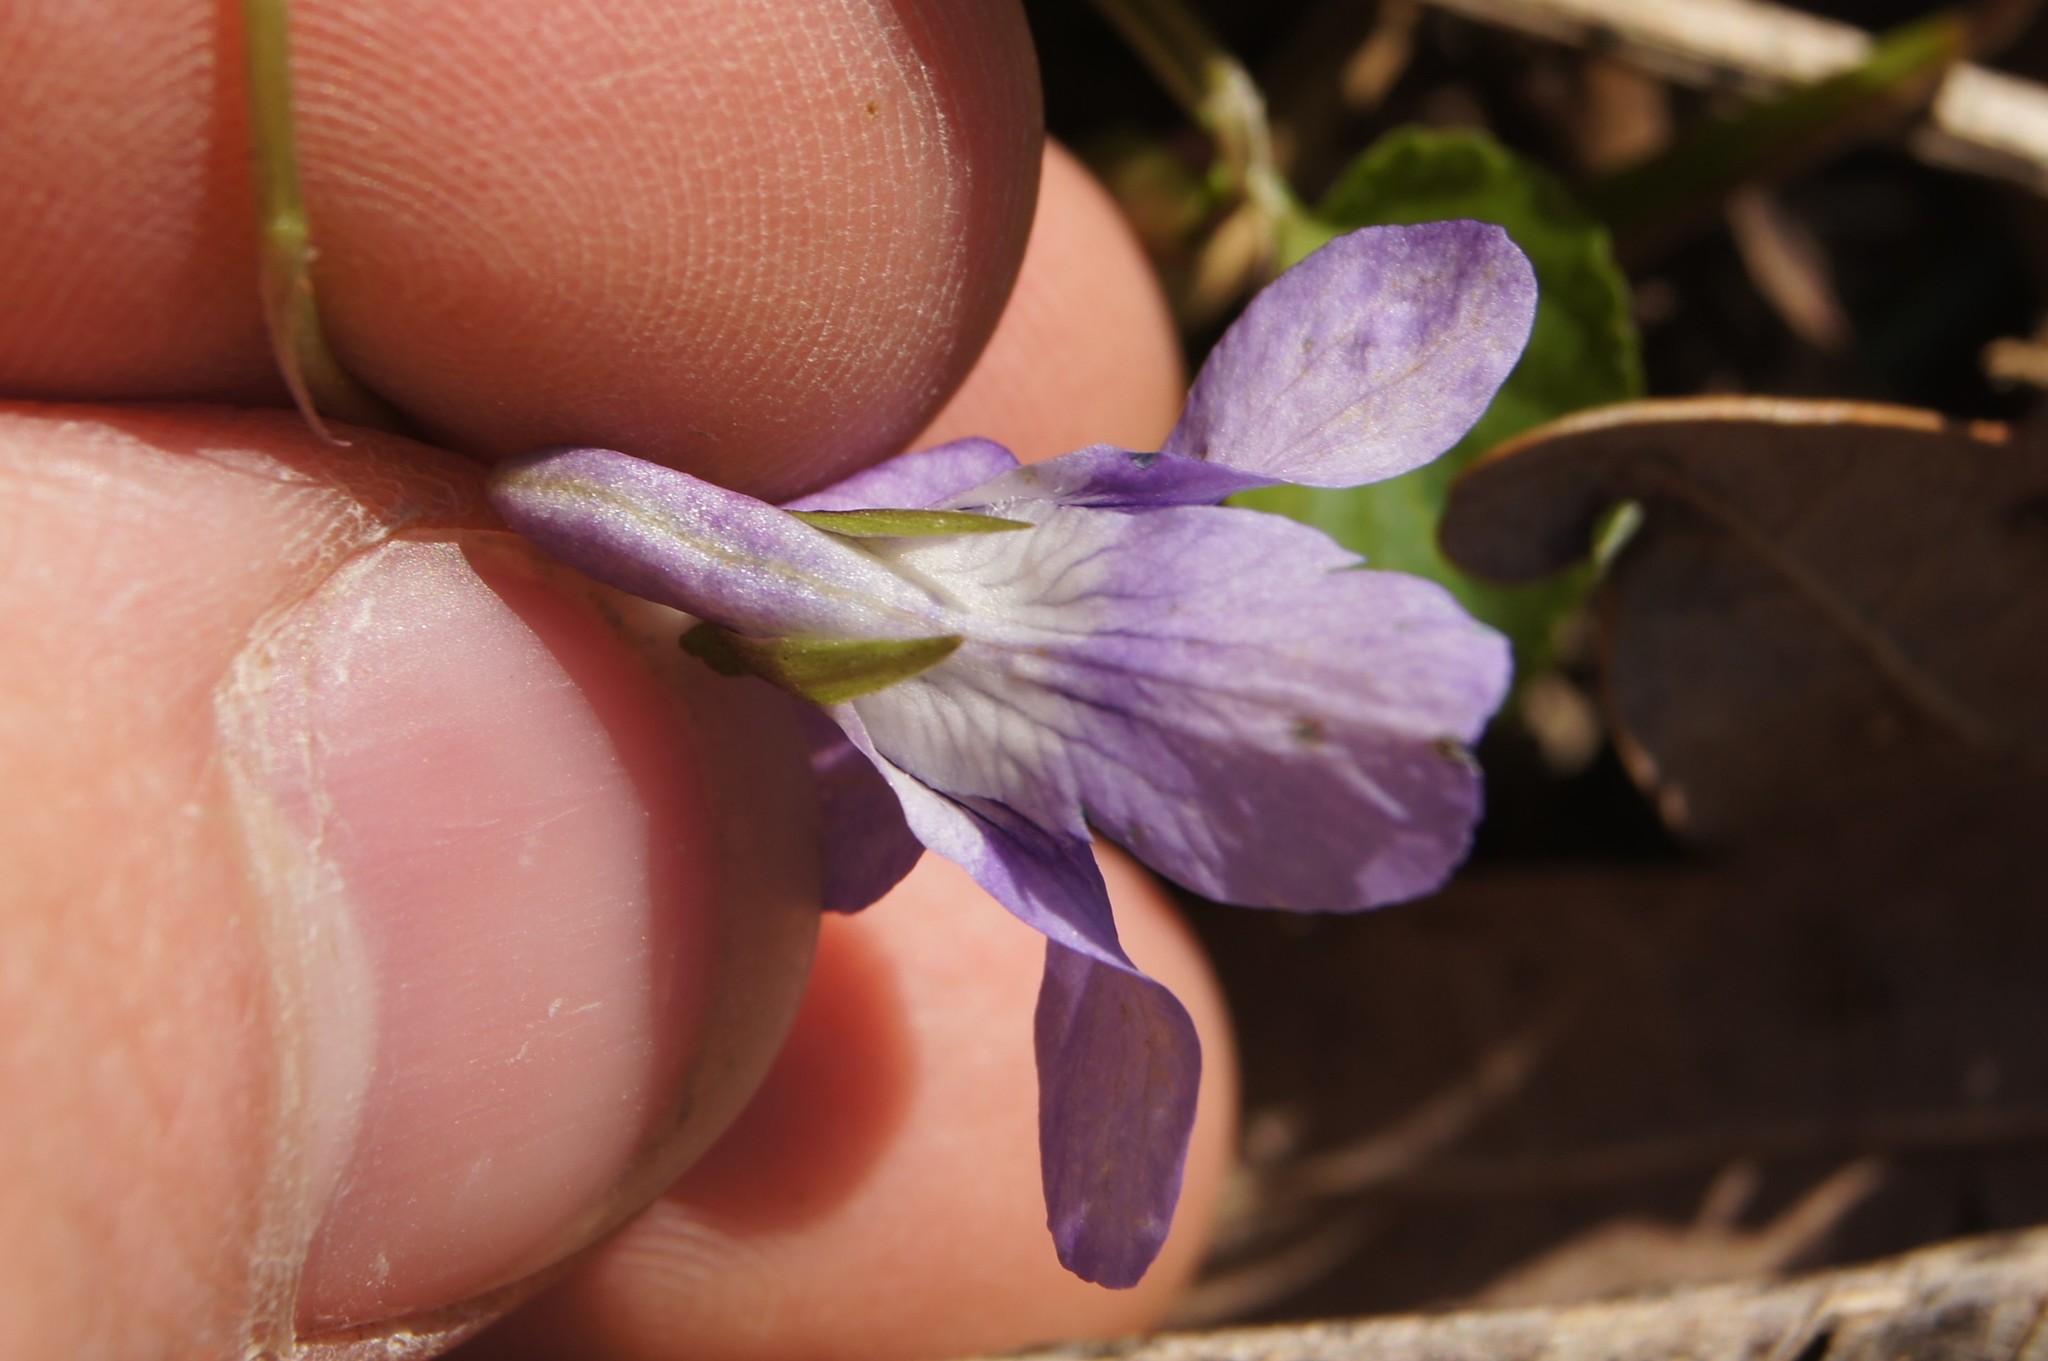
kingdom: Plantae
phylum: Tracheophyta
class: Magnoliopsida
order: Malpighiales
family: Violaceae
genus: Viola
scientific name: Viola reichenbachiana
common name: Early dog-violet
